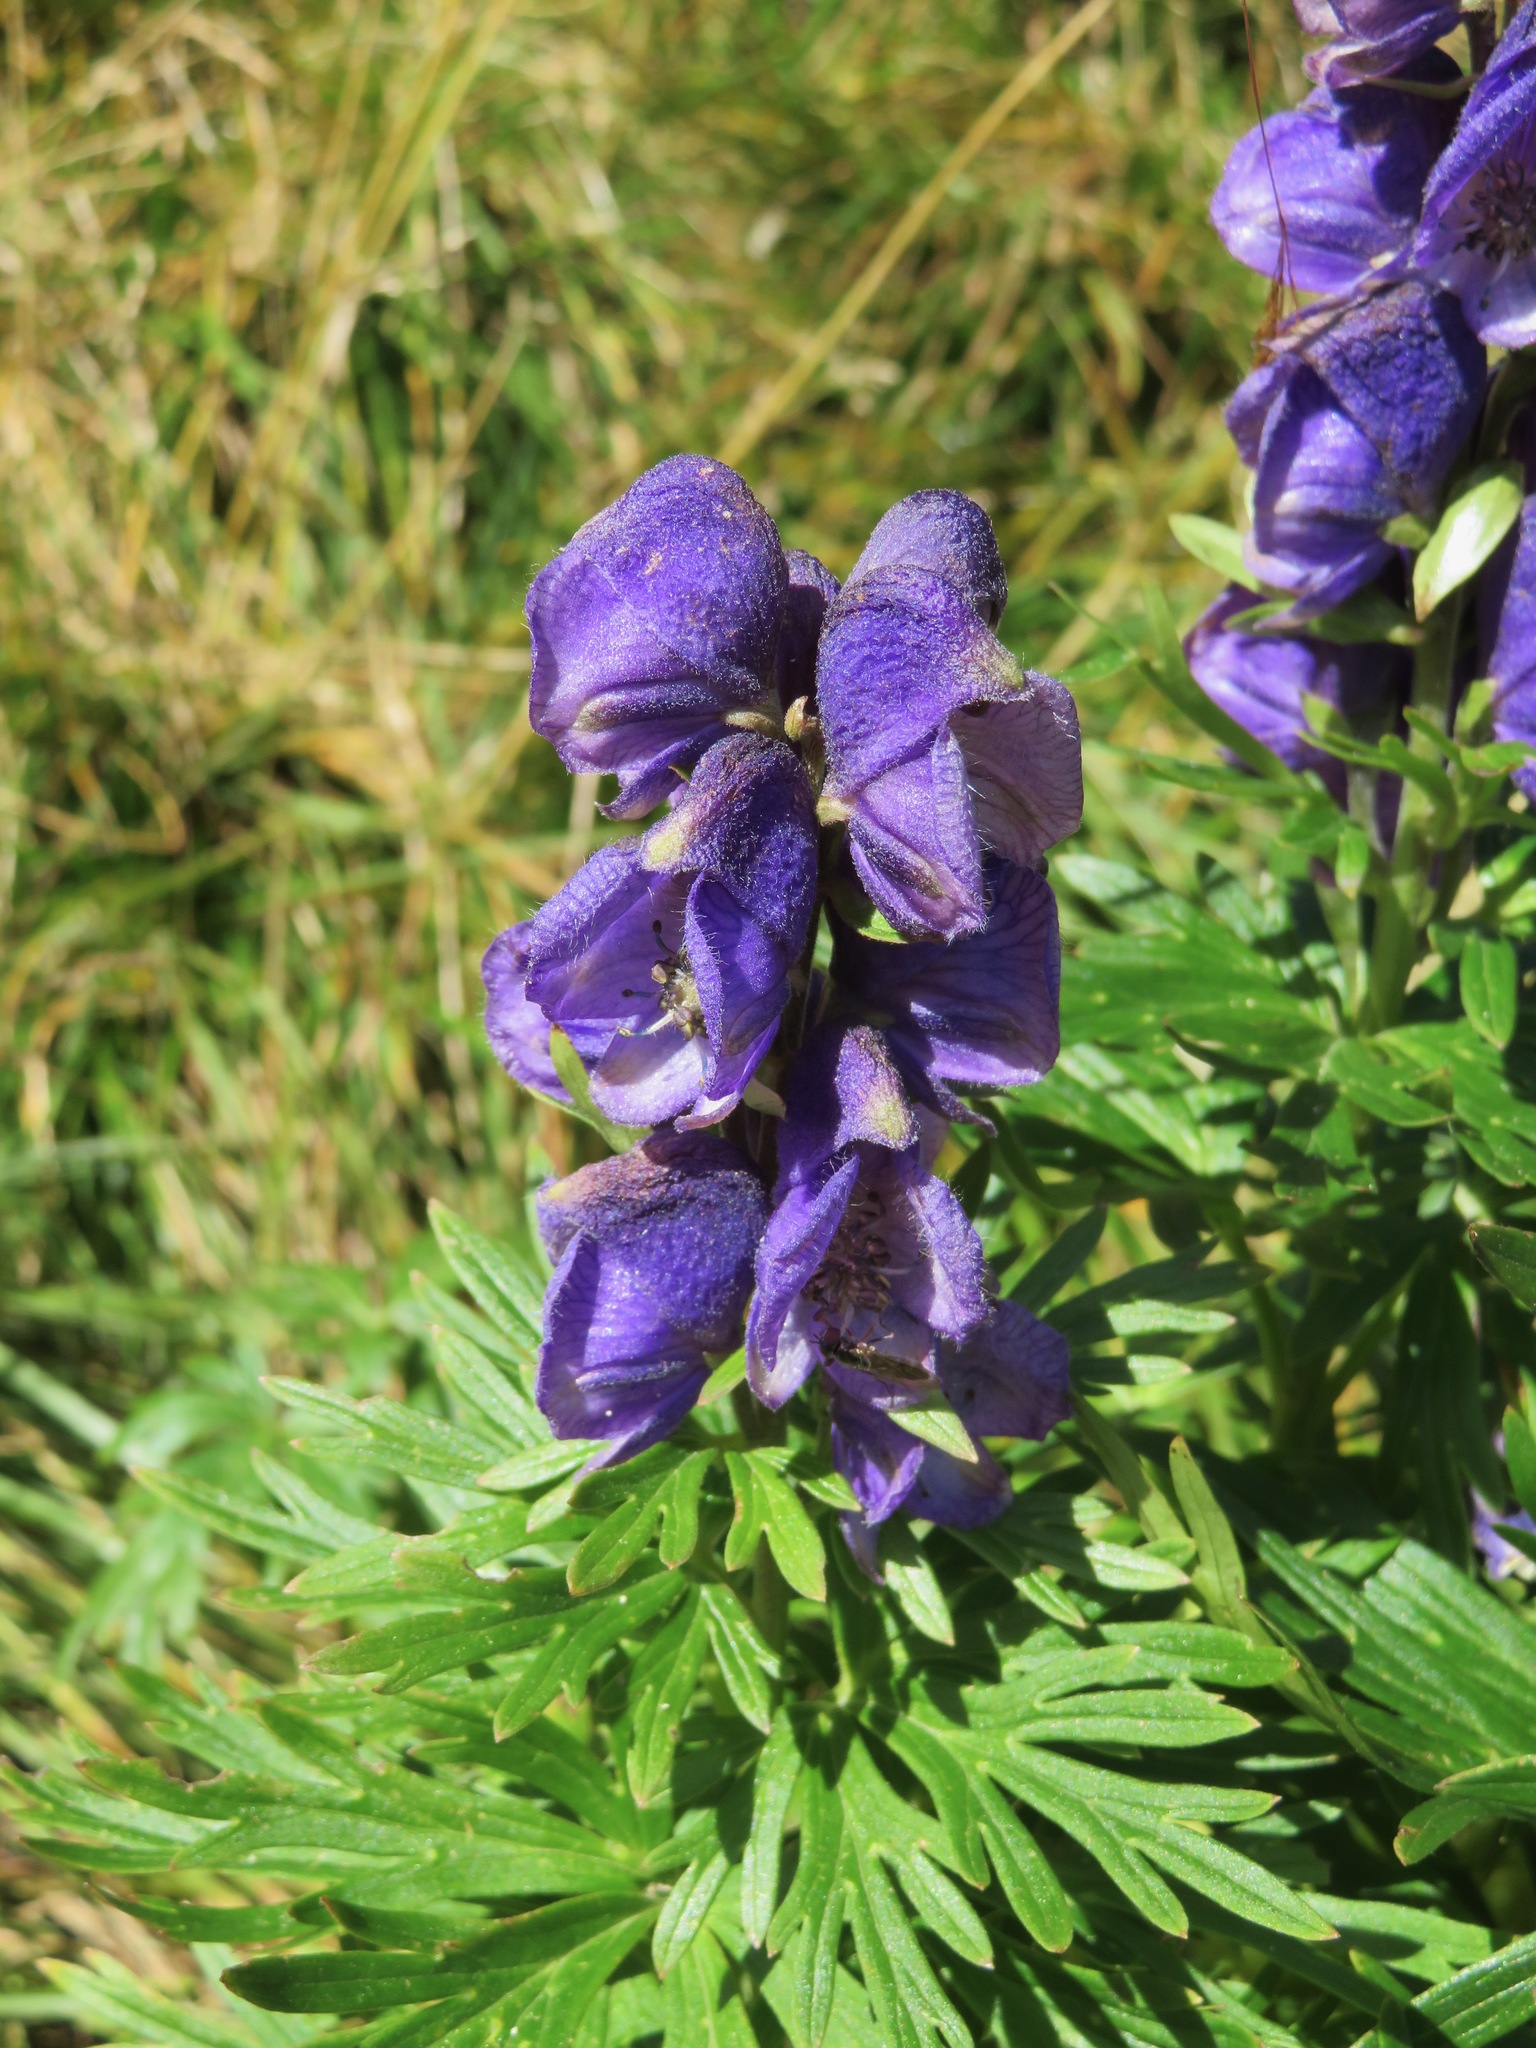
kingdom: Plantae
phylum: Tracheophyta
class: Magnoliopsida
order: Ranunculales
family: Ranunculaceae
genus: Aconitum
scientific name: Aconitum napellus
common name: Garden monkshood
